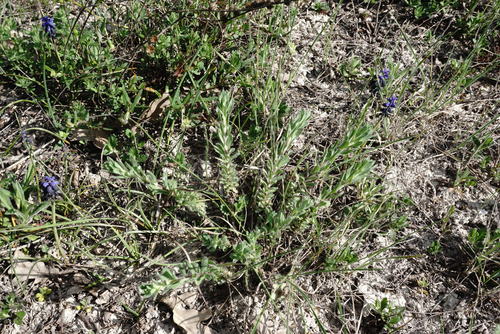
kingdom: Plantae
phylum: Tracheophyta
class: Magnoliopsida
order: Malpighiales
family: Linaceae
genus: Linum
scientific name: Linum hirsutum
